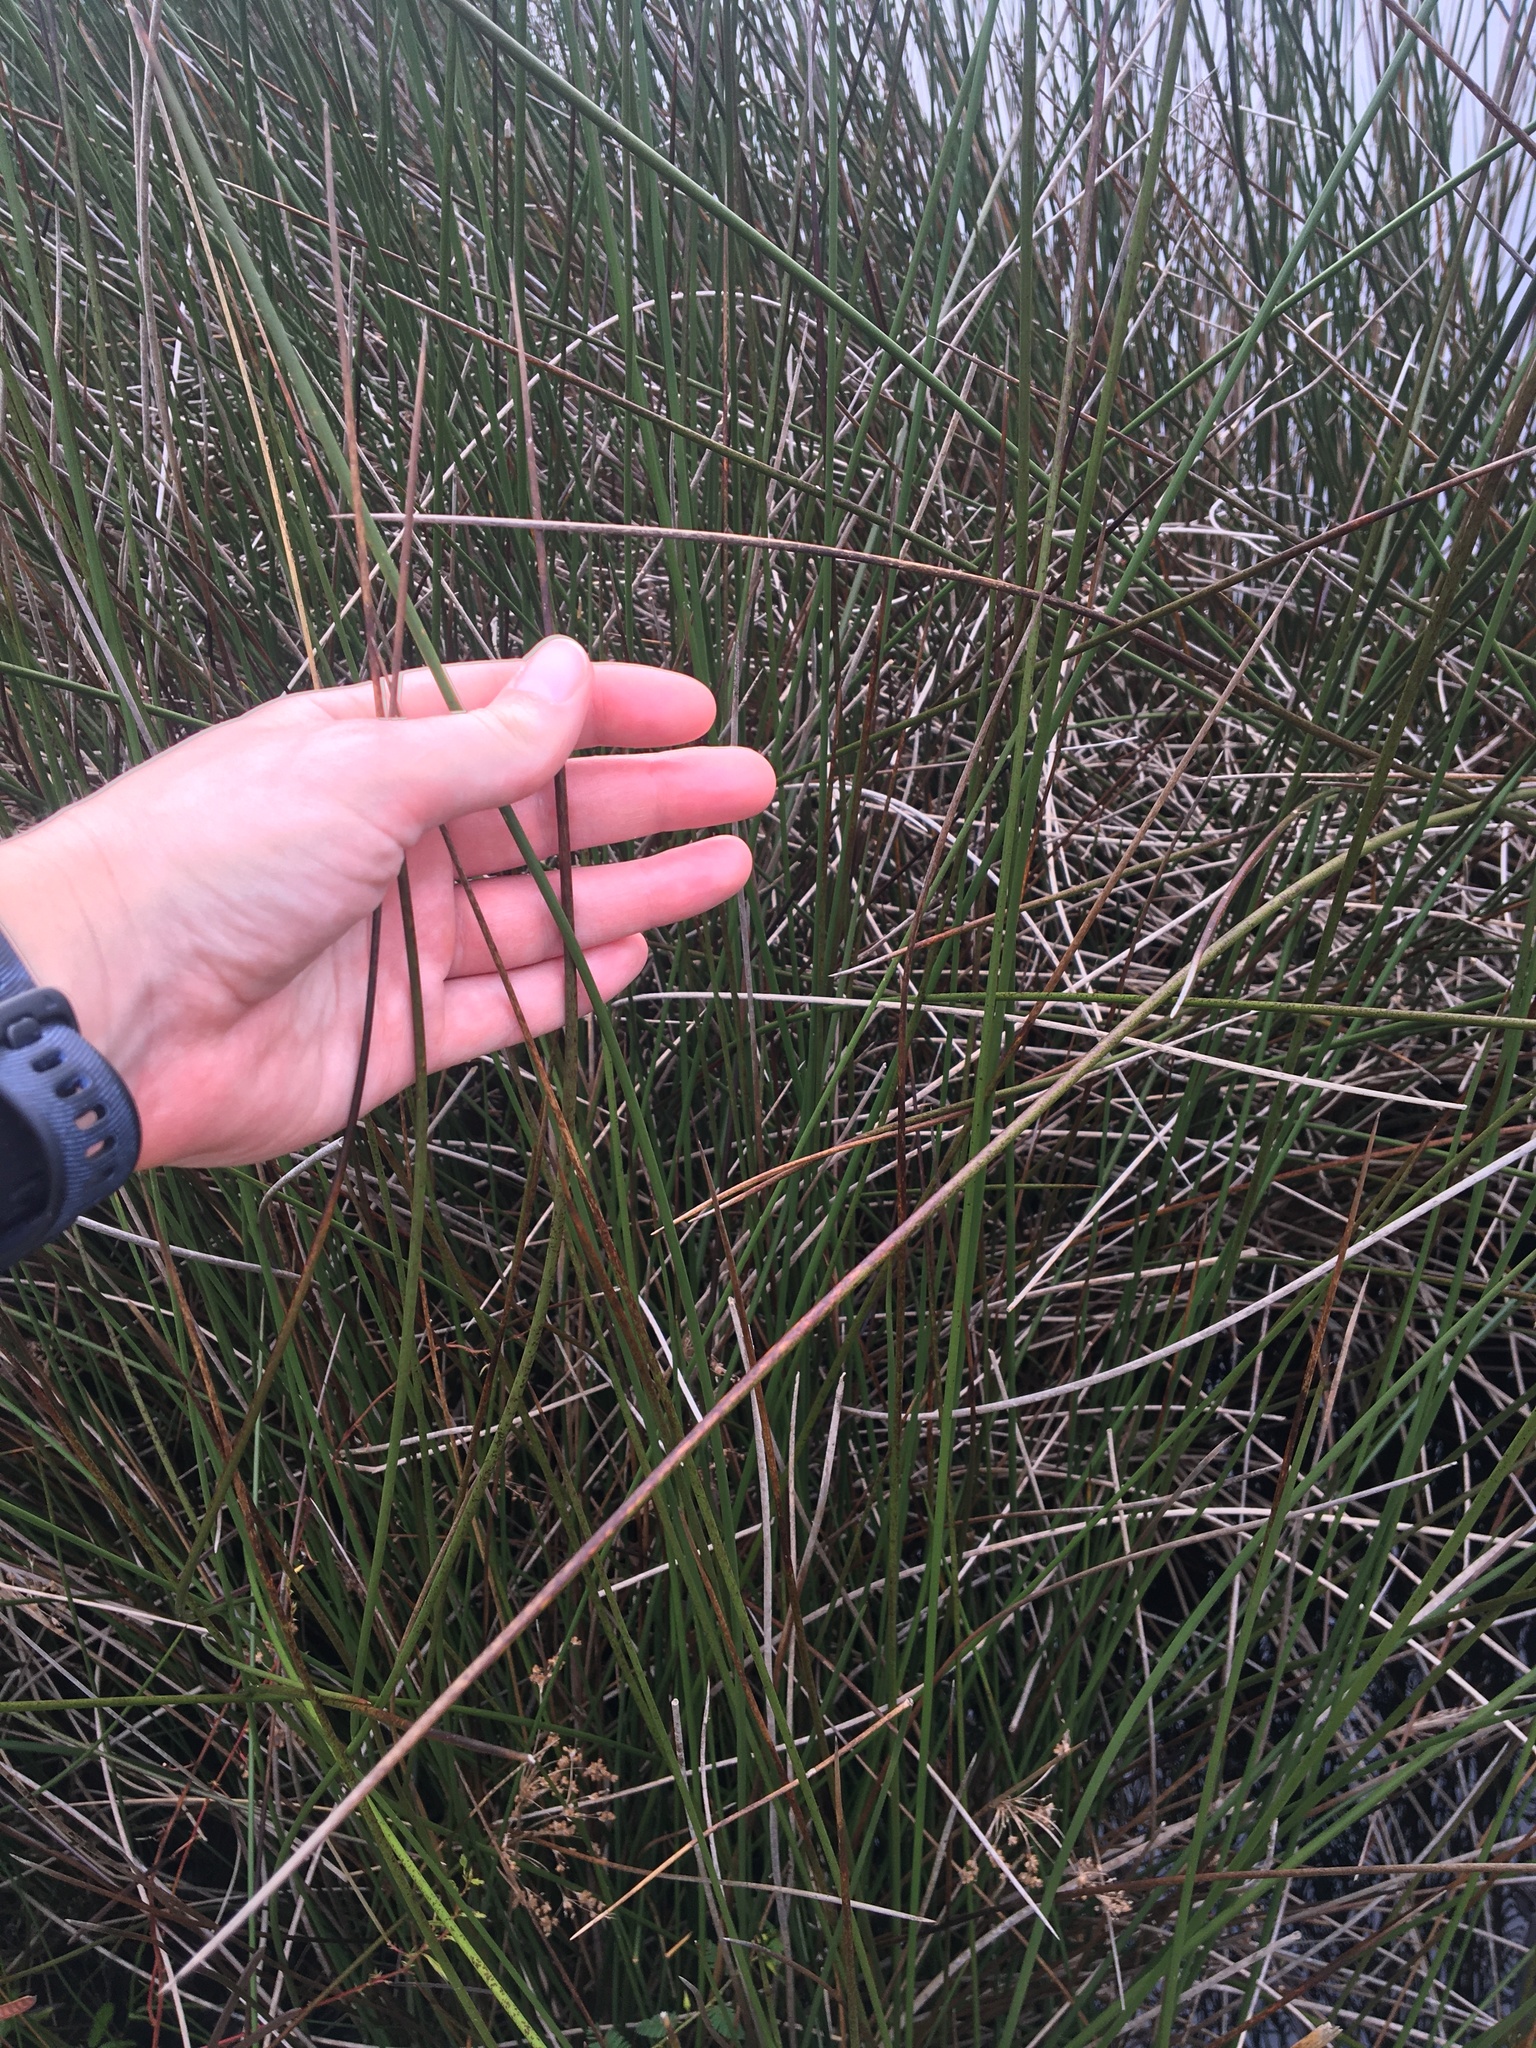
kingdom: Plantae
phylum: Tracheophyta
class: Liliopsida
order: Poales
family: Juncaceae
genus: Juncus
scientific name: Juncus roemerianus
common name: Roemer's rush
